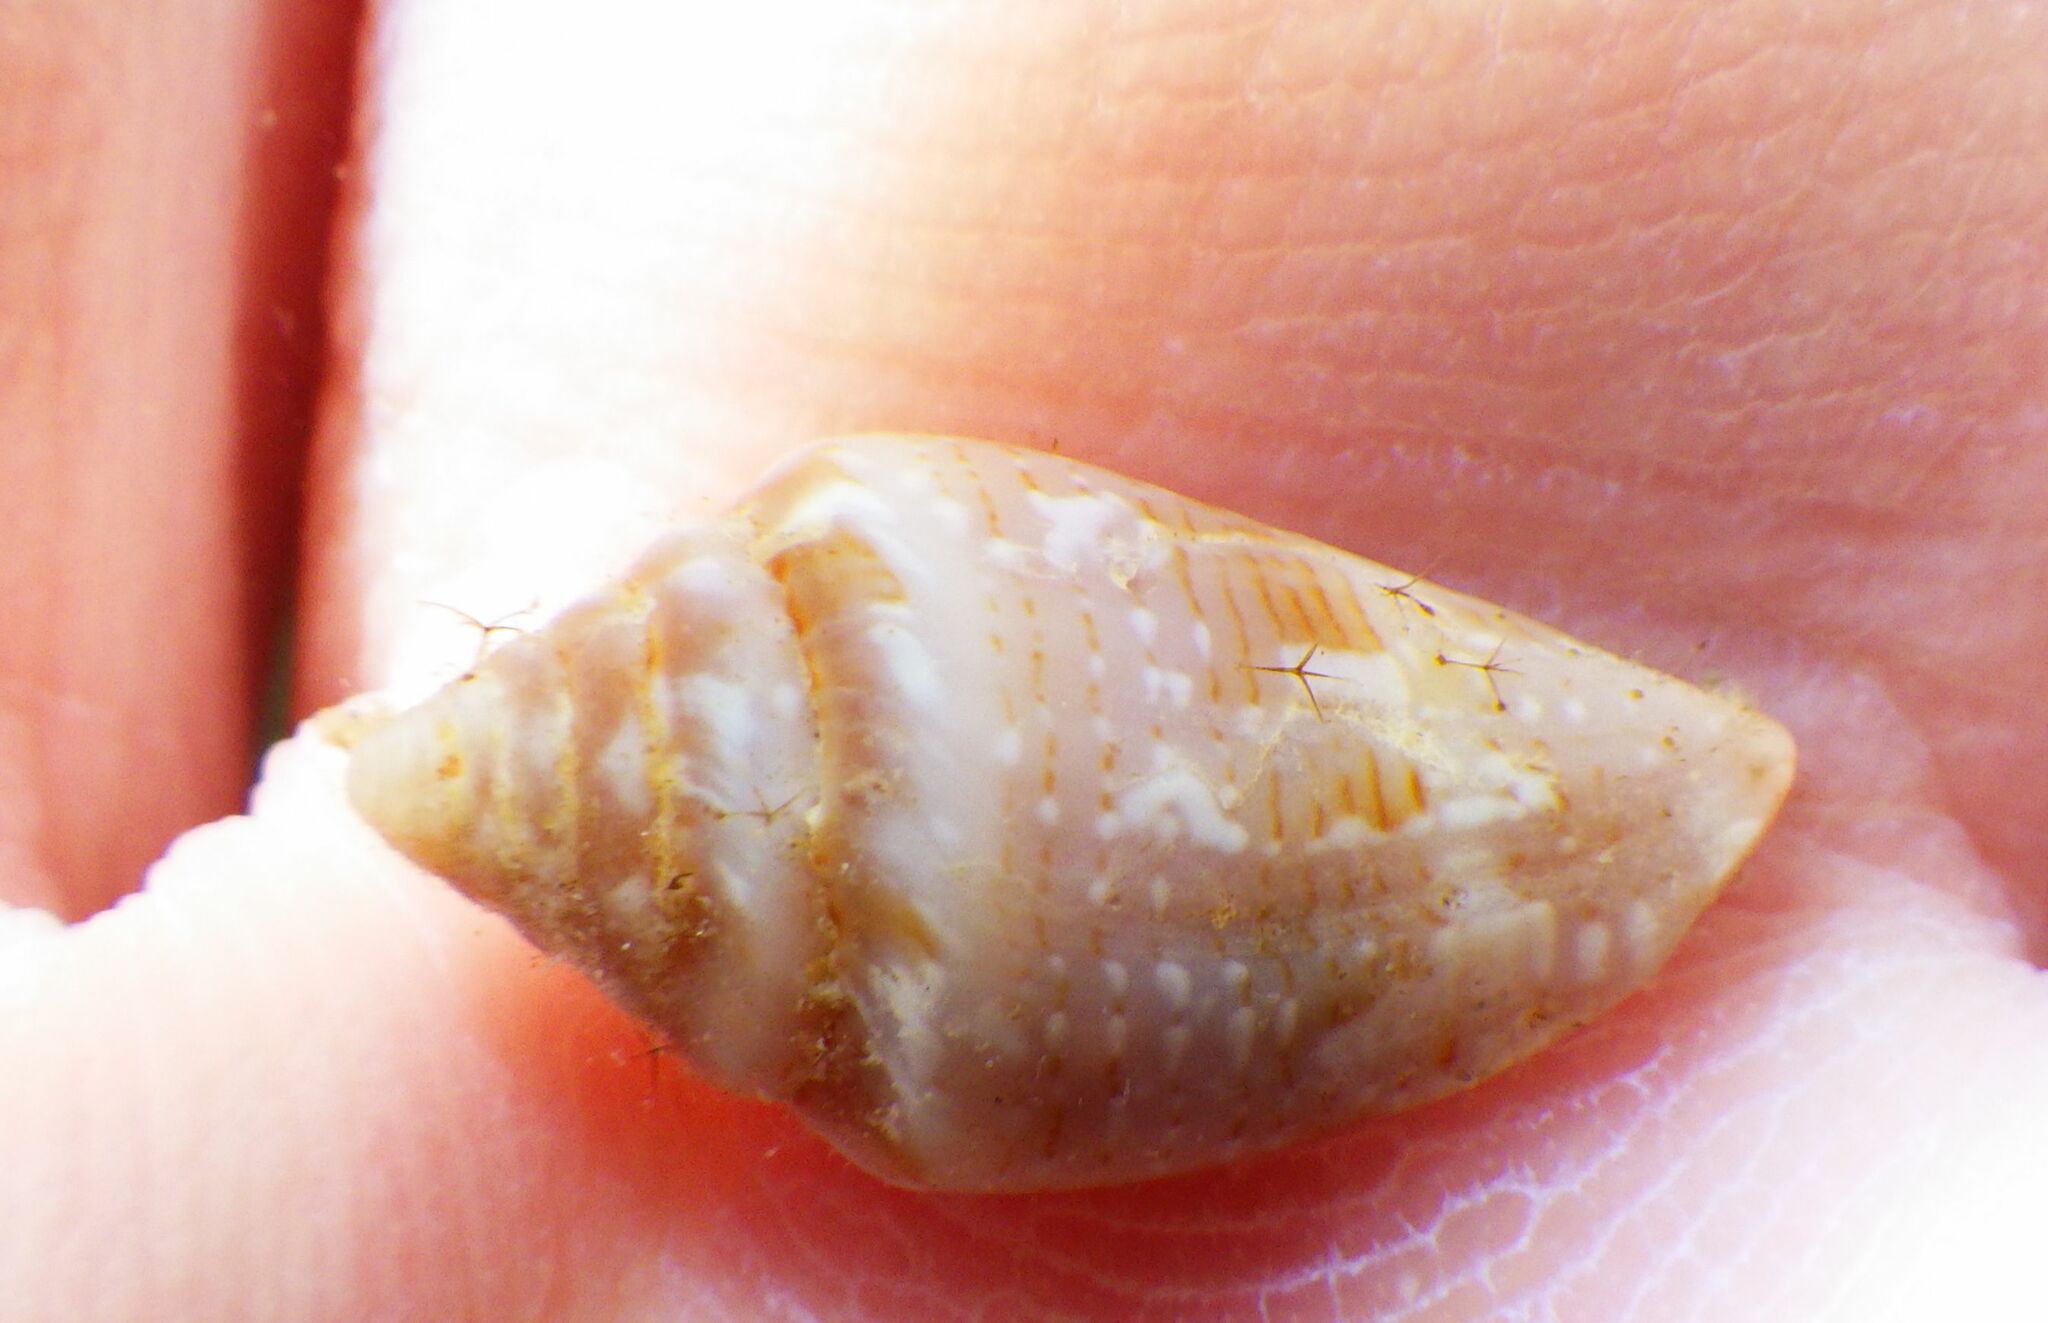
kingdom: Animalia
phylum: Mollusca
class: Gastropoda
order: Neogastropoda
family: Conidae
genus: Conus
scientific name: Conus ventricosus
